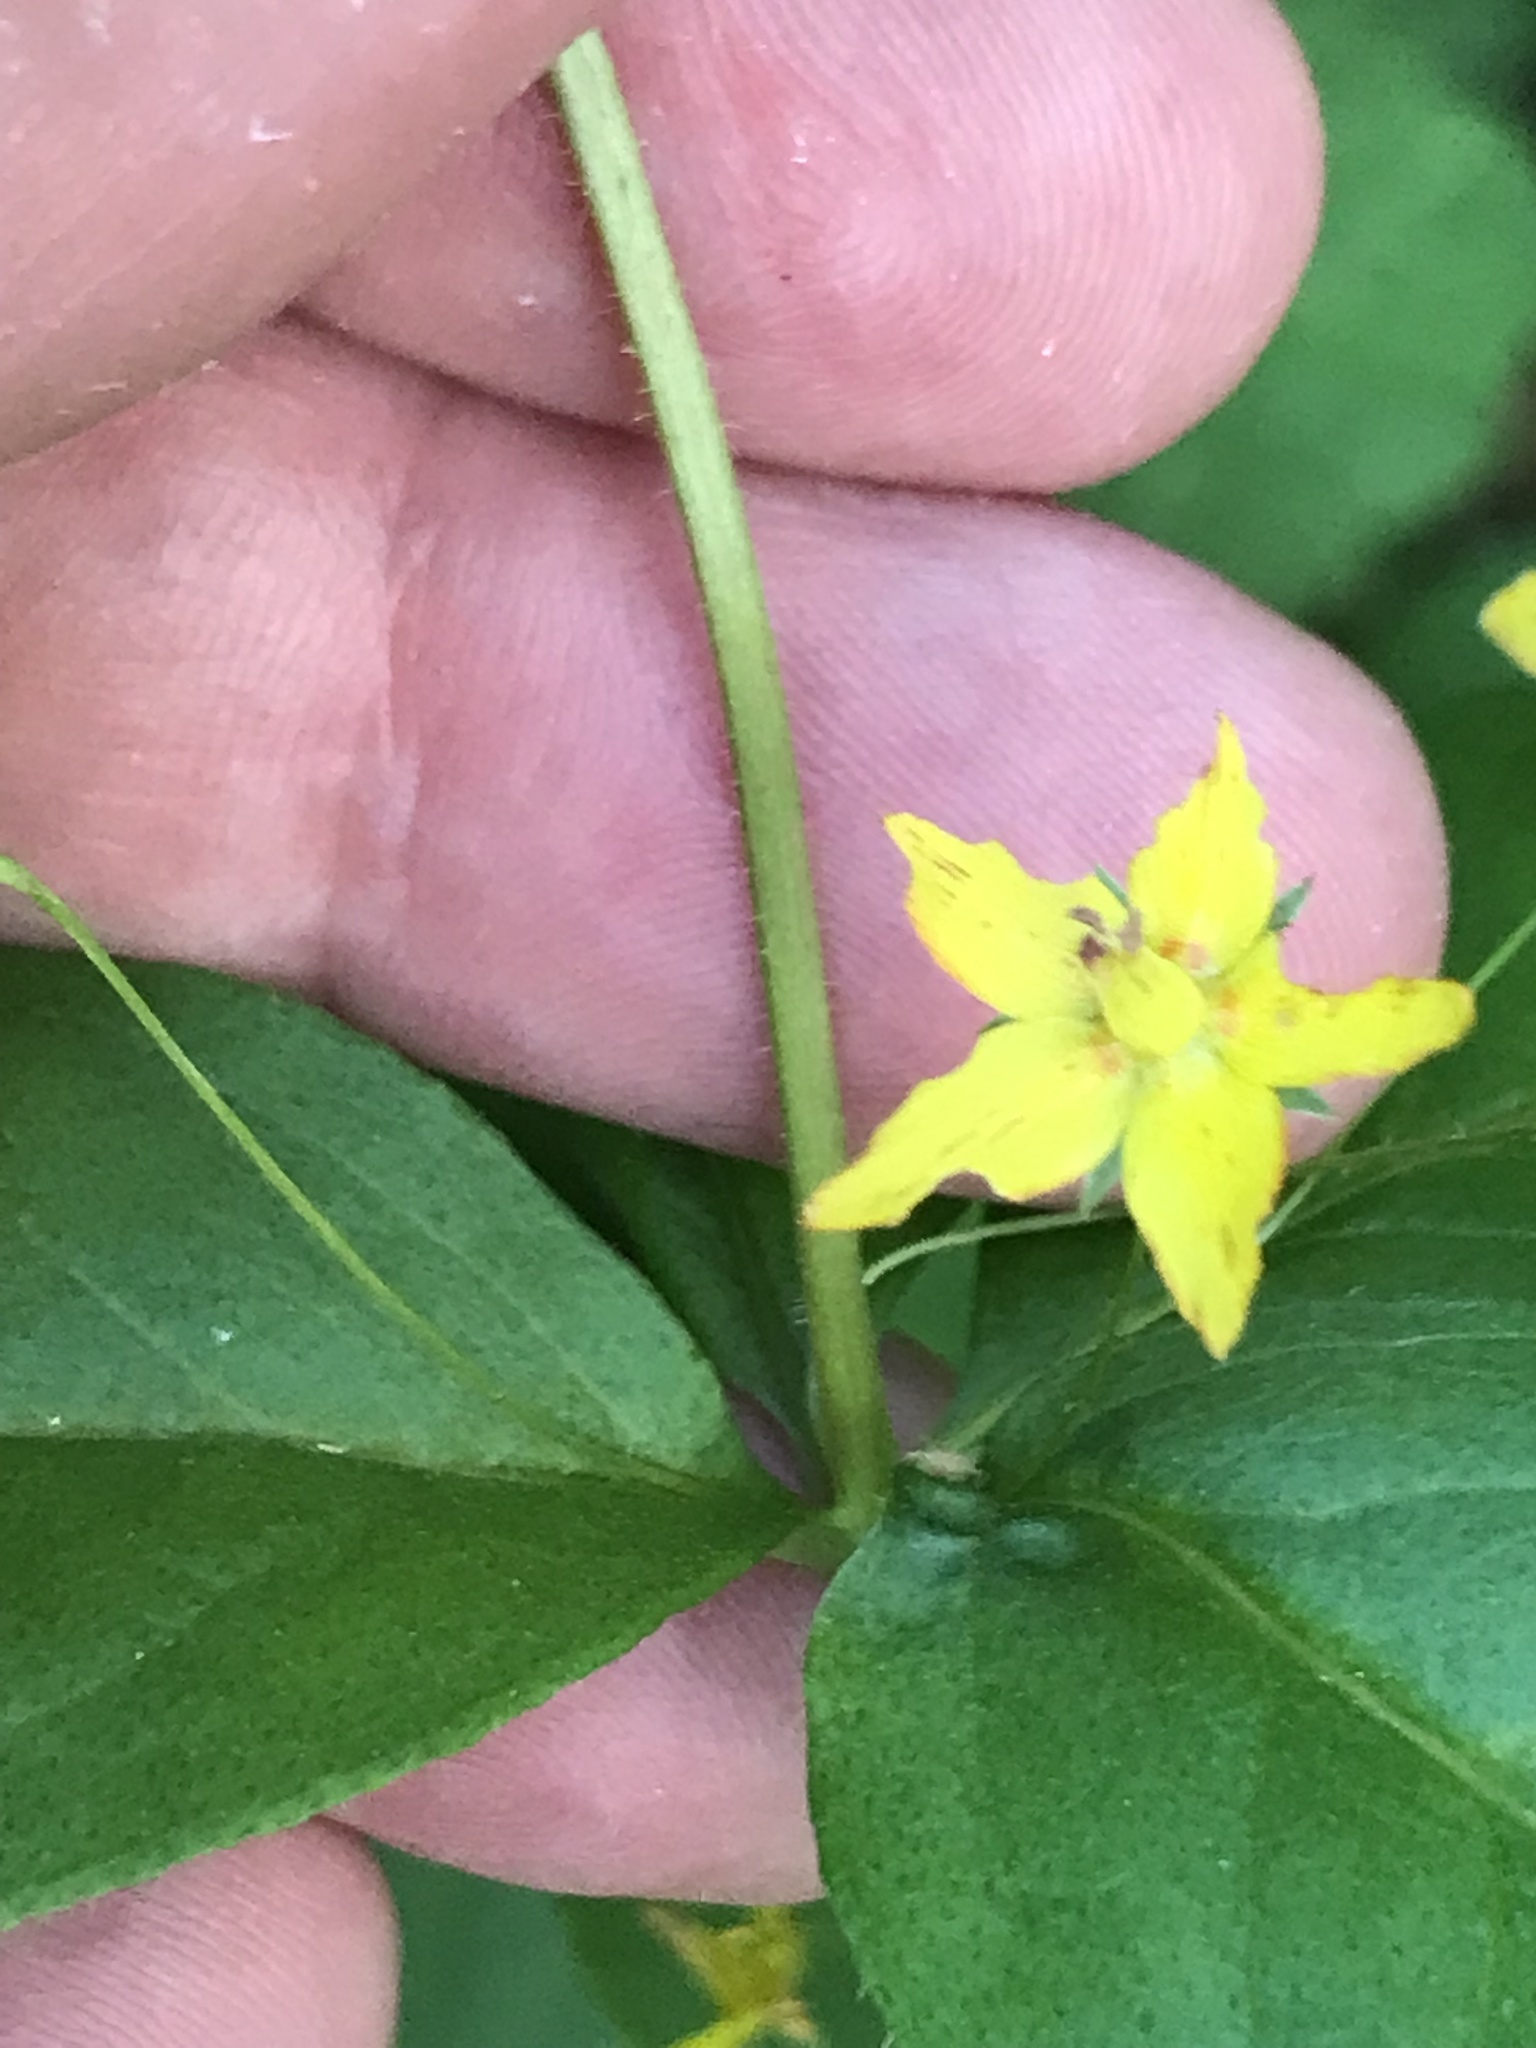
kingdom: Plantae
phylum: Tracheophyta
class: Magnoliopsida
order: Ericales
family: Primulaceae
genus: Lysimachia
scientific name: Lysimachia quadrifolia
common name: Whorled loosestrife
